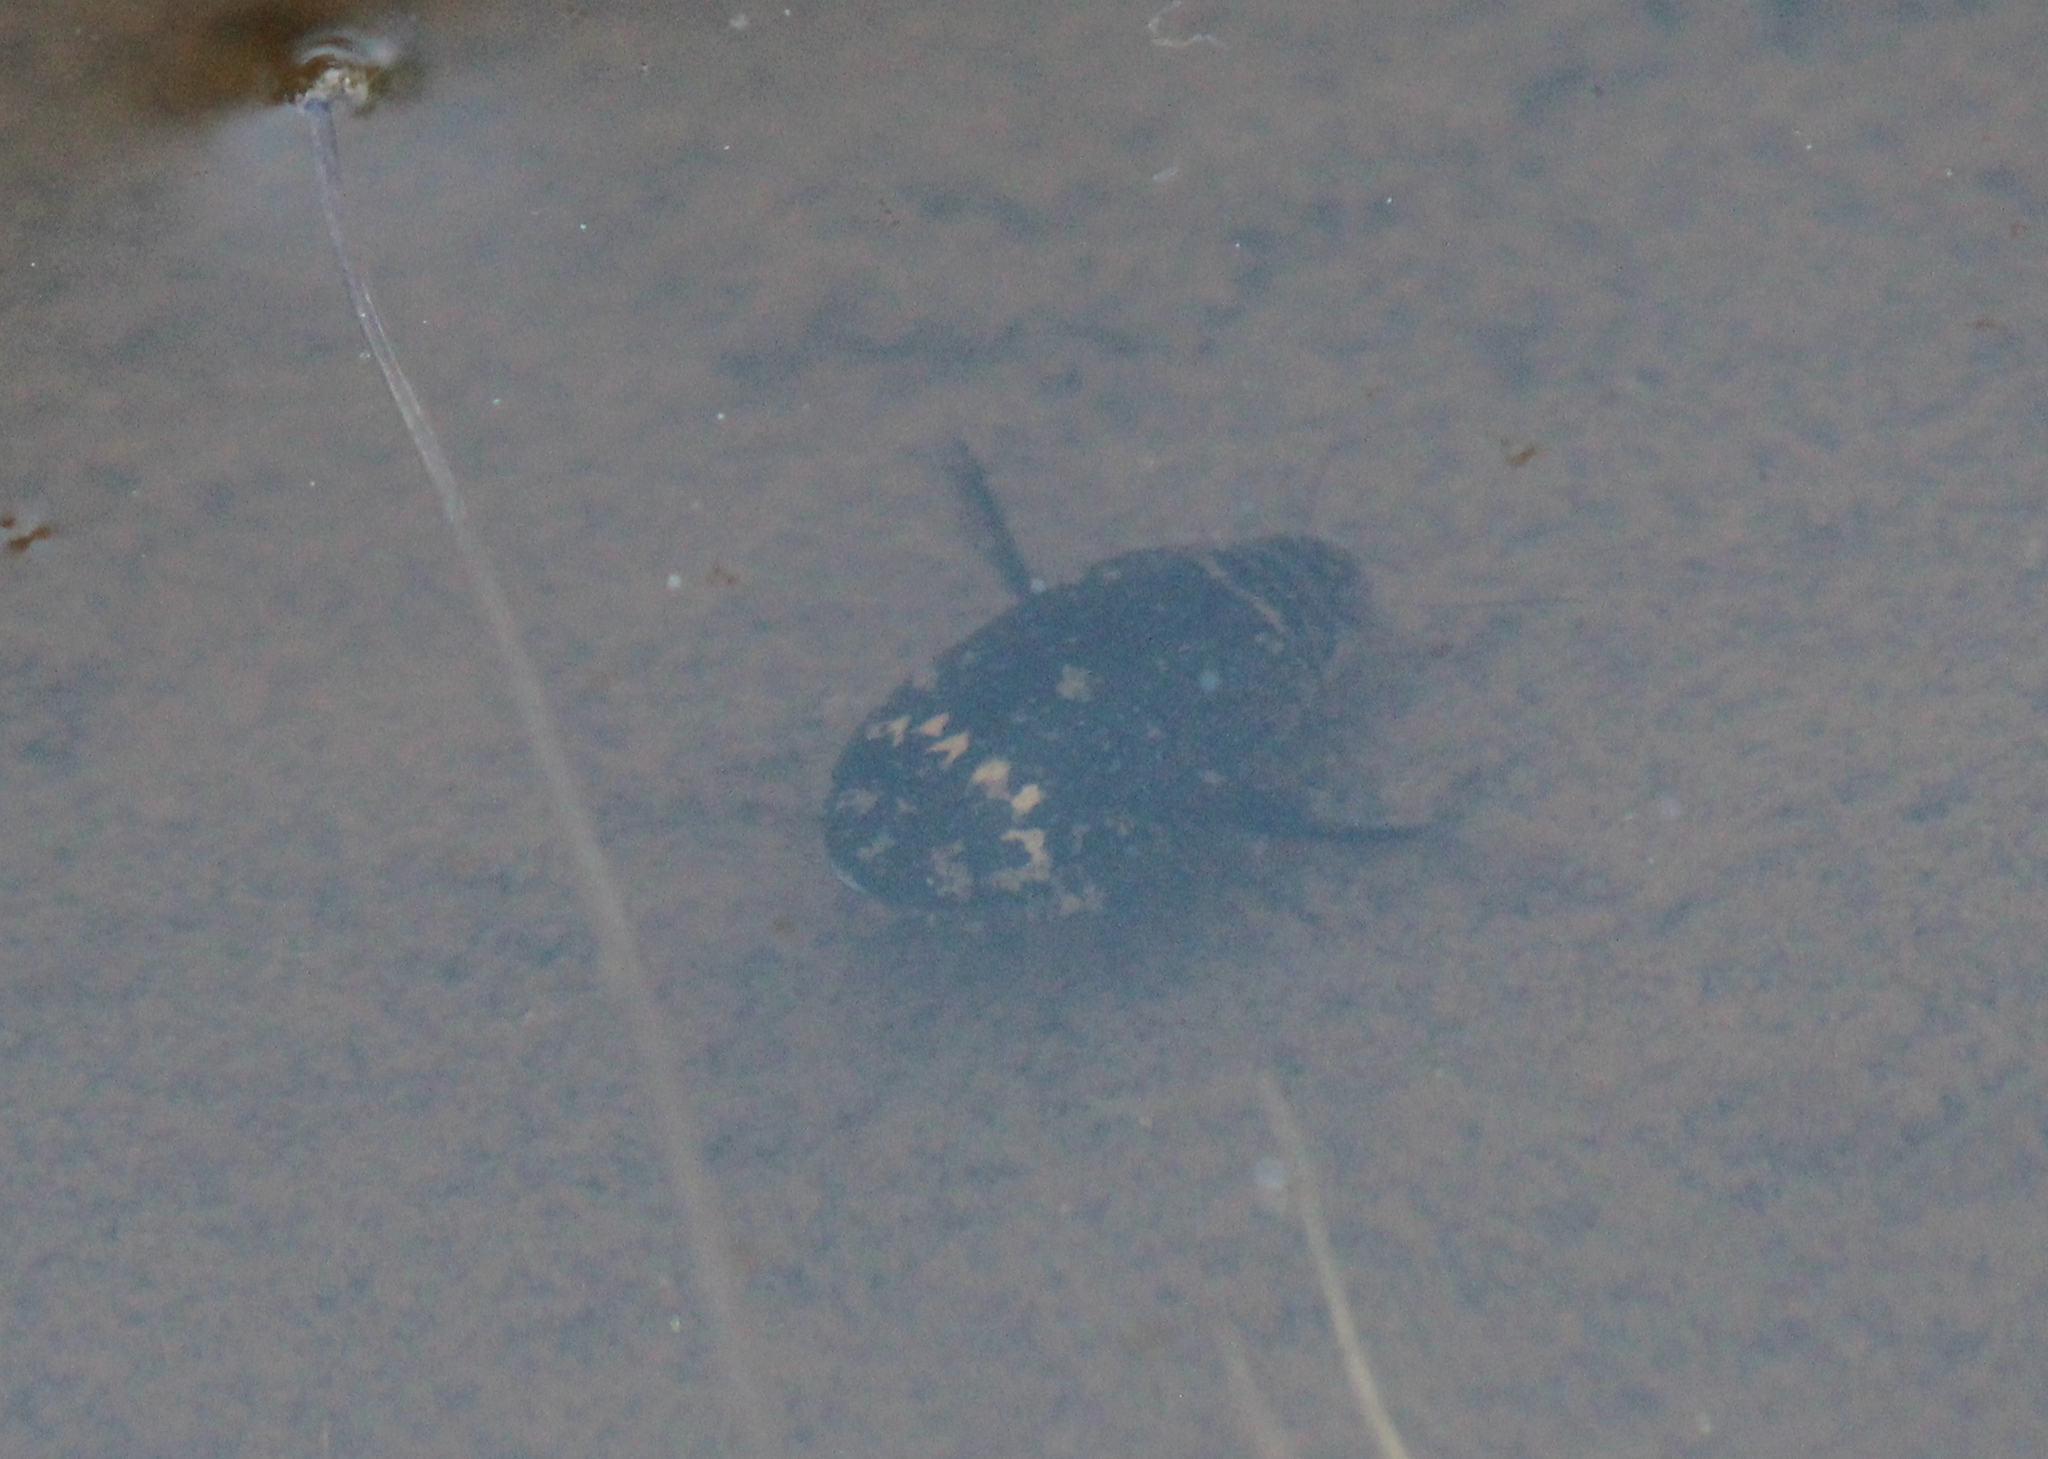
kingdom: Animalia
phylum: Arthropoda
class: Insecta
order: Coleoptera
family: Dytiscidae
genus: Acilius
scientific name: Acilius mediatus
